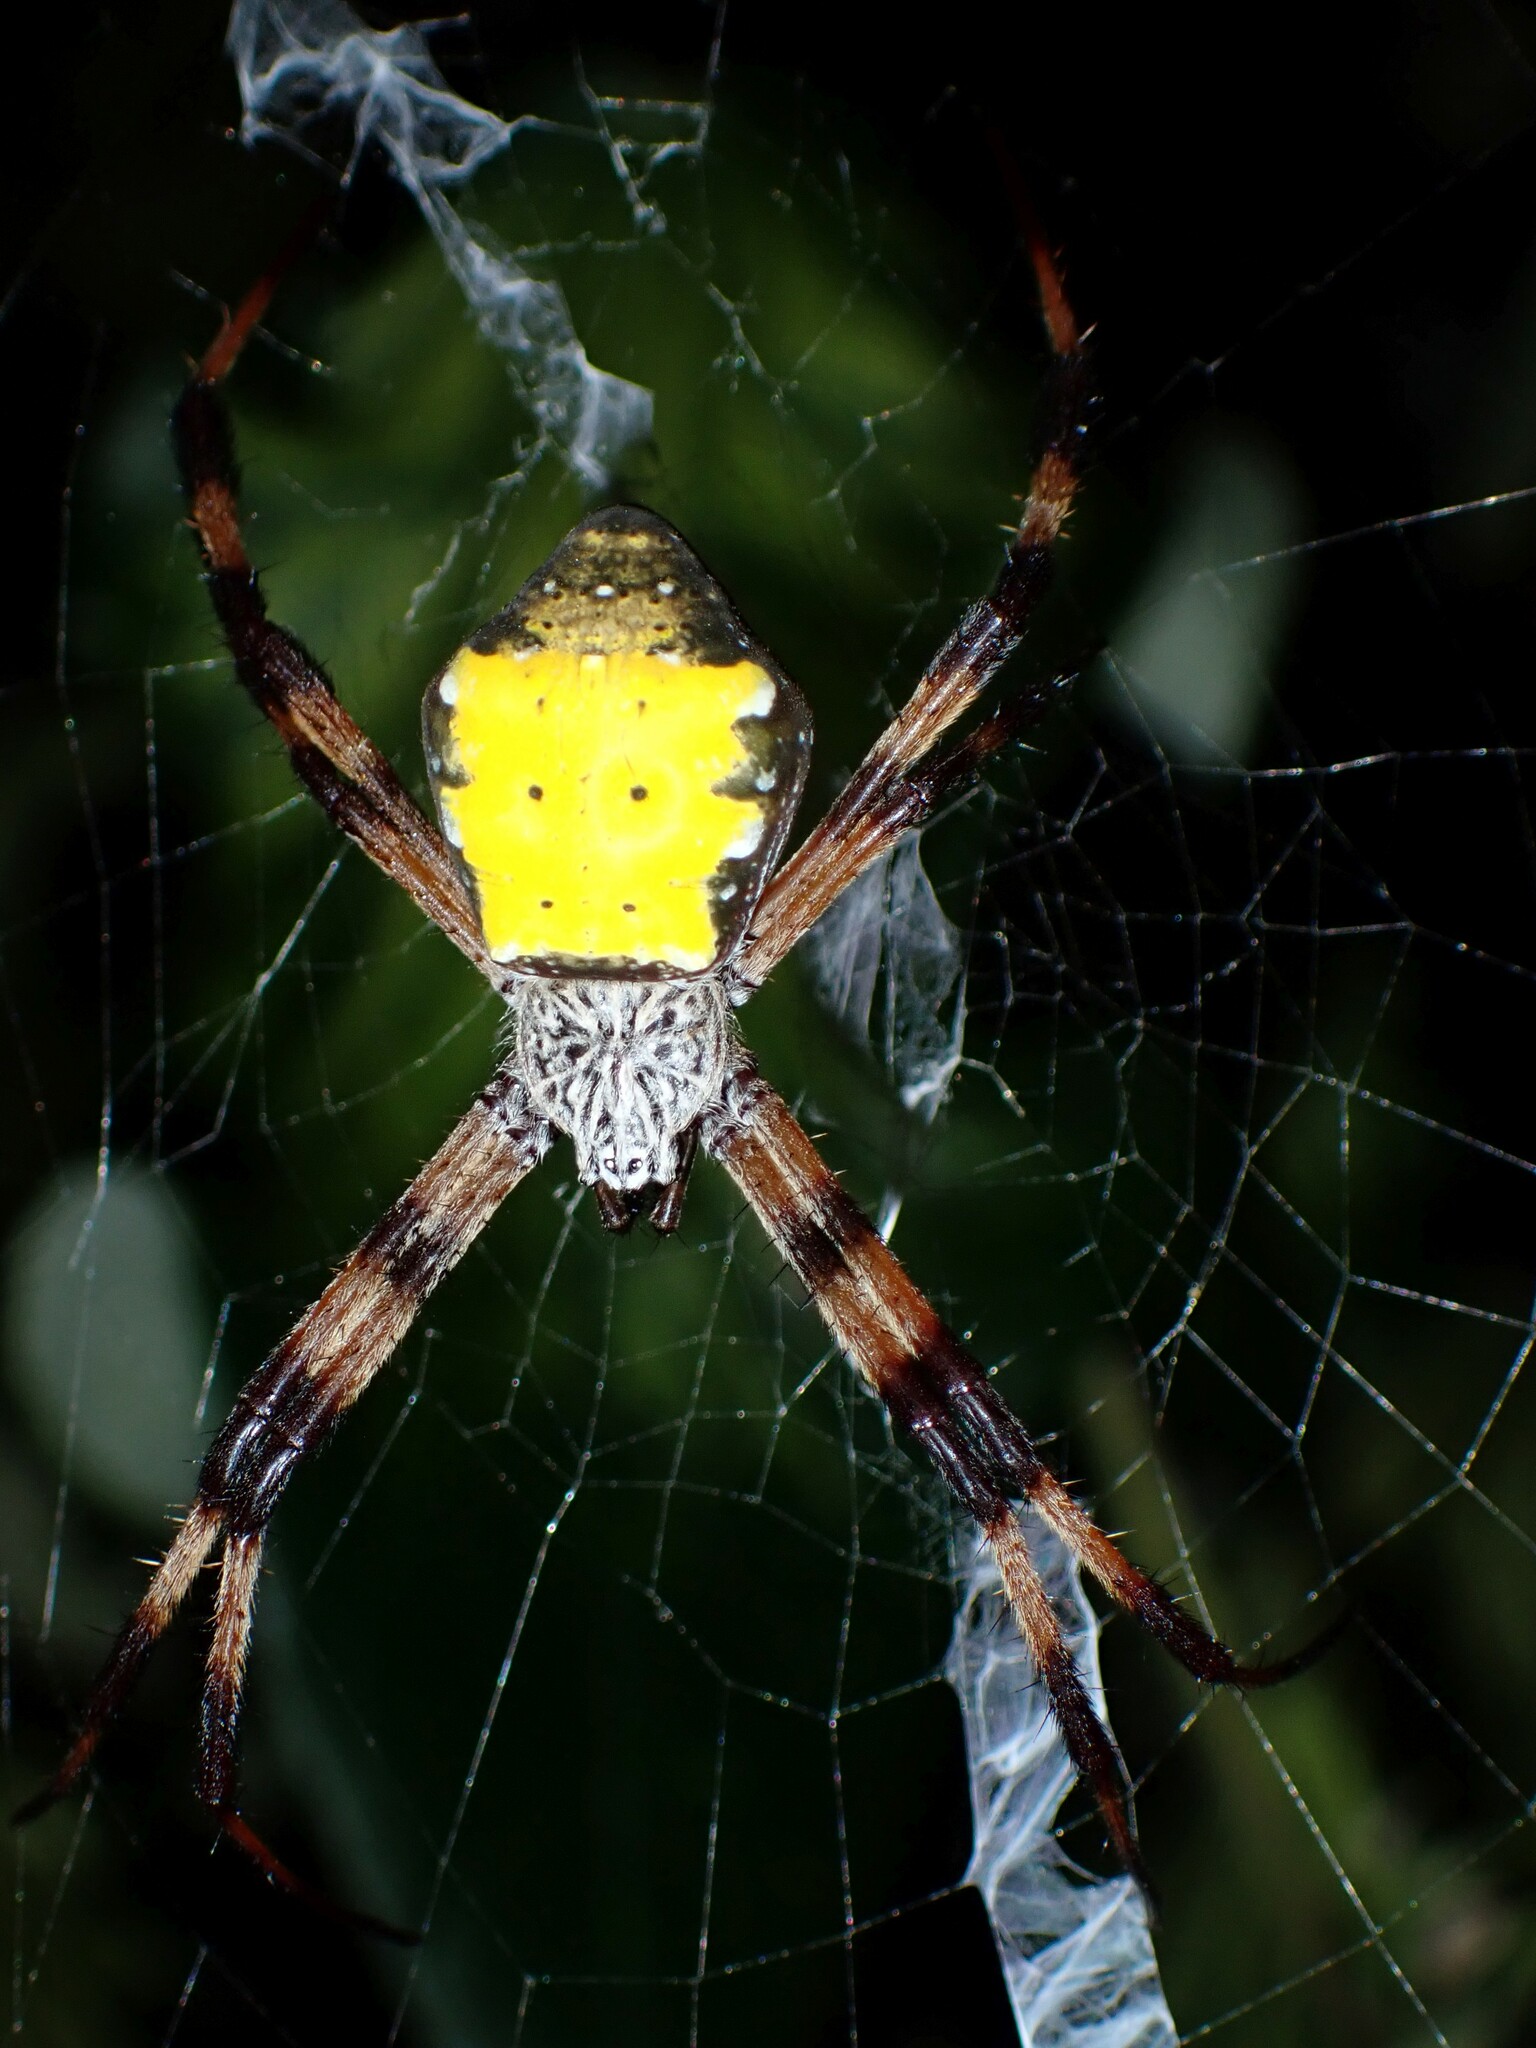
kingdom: Animalia
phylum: Arthropoda
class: Arachnida
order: Araneae
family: Araneidae
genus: Argiope
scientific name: Argiope aetherea
